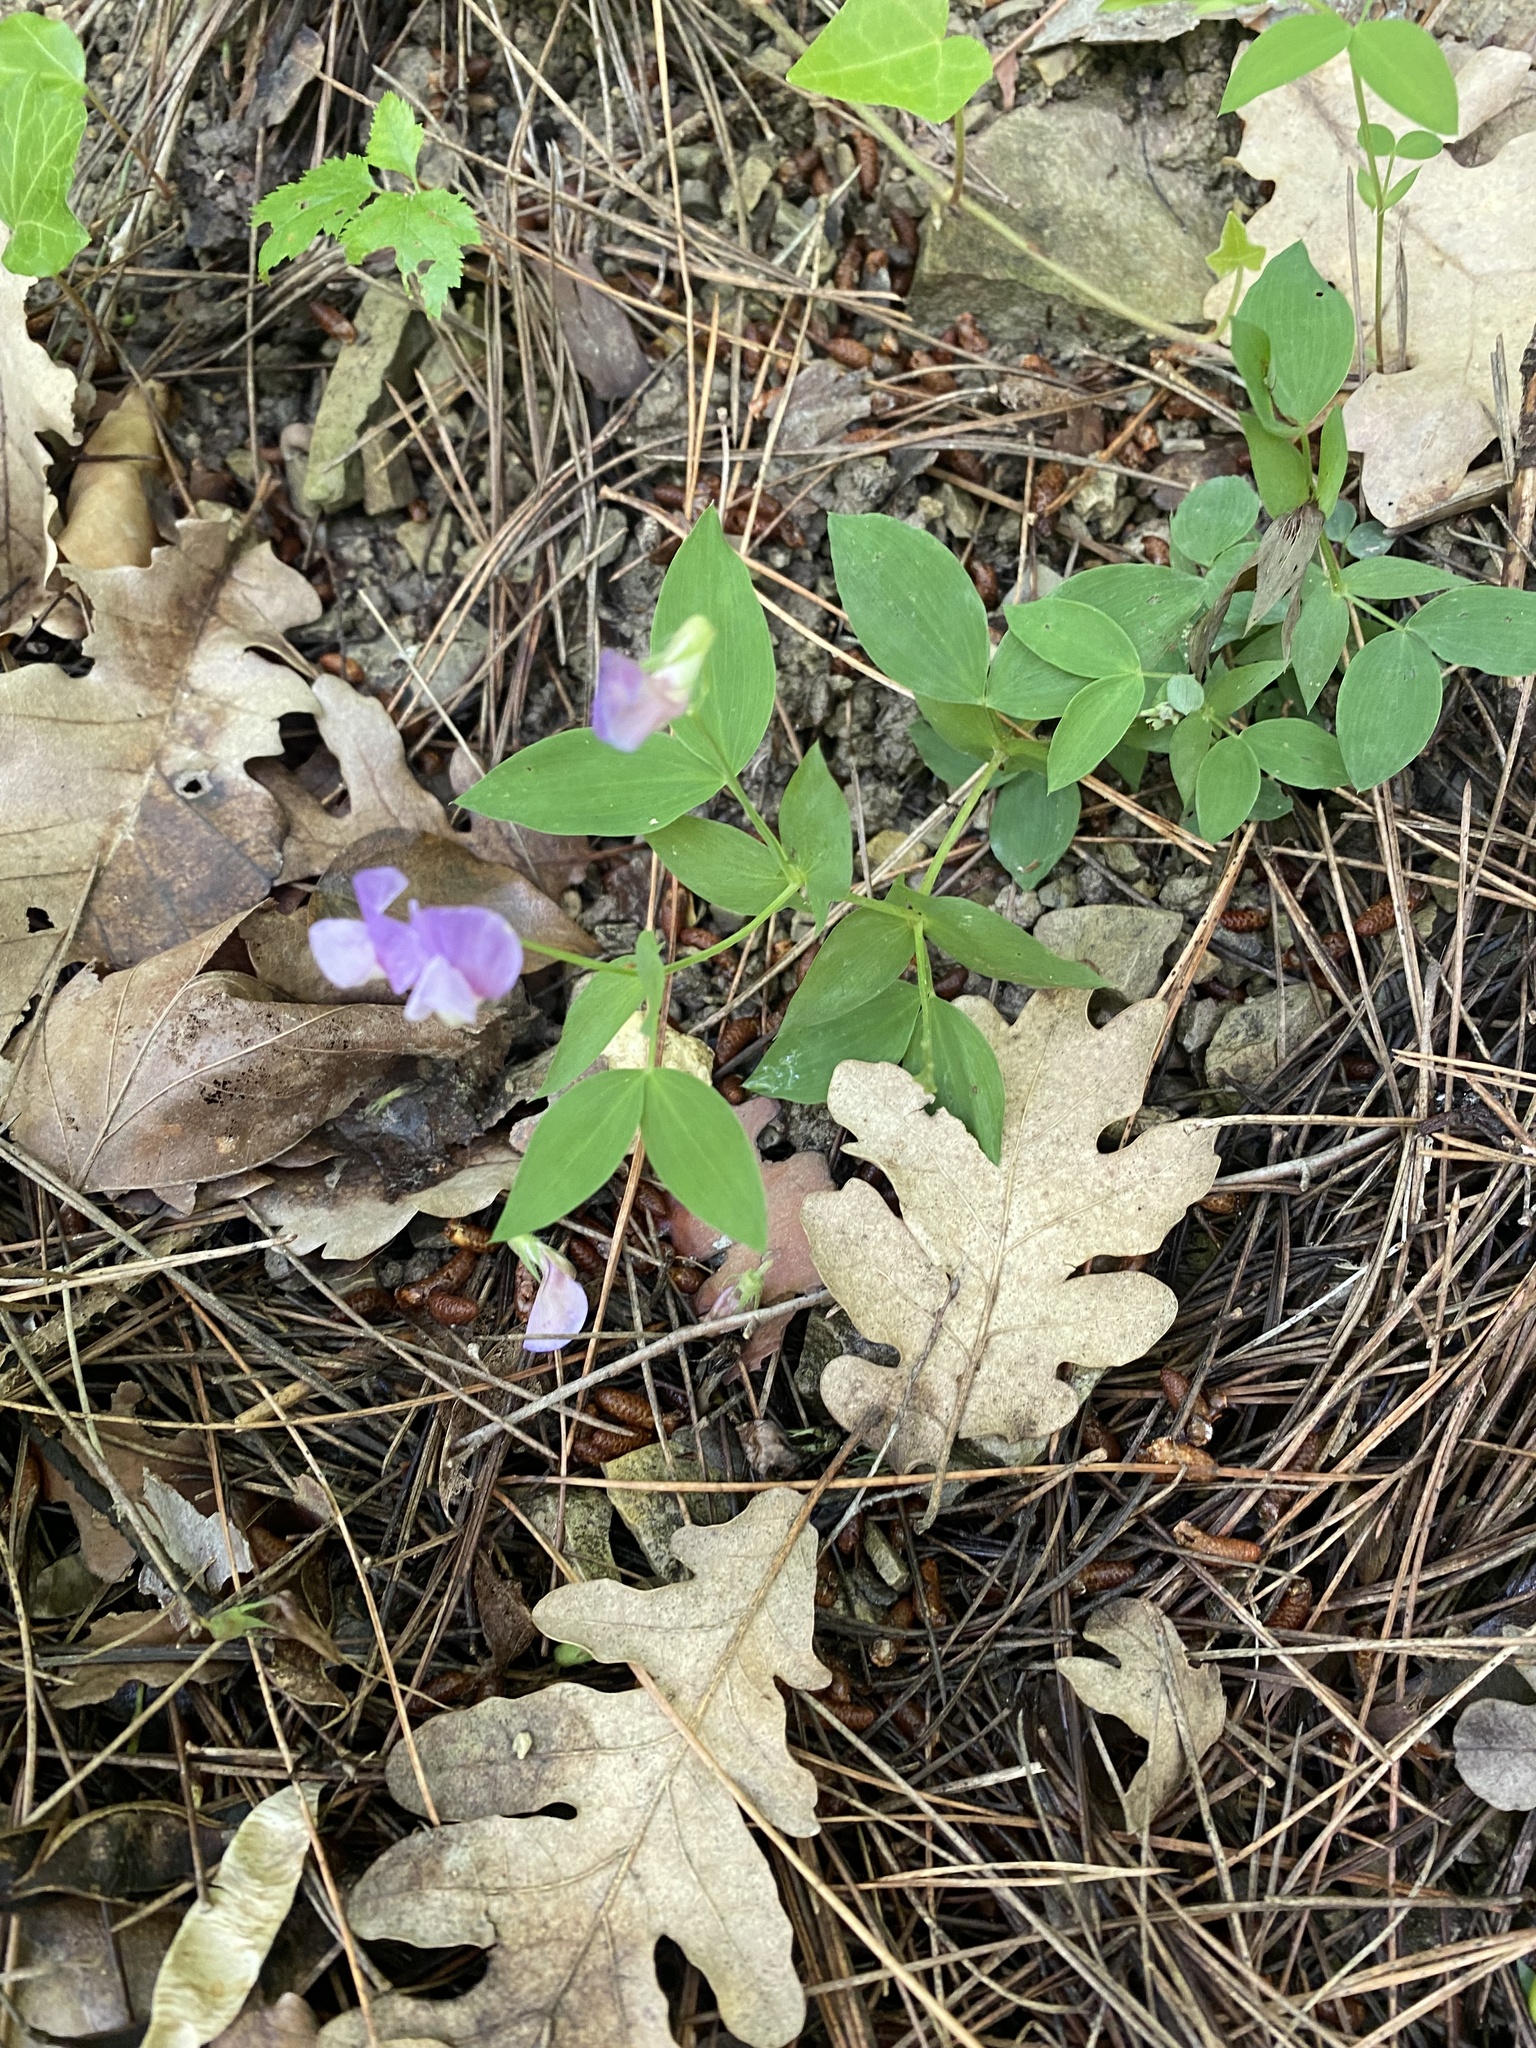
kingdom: Plantae
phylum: Tracheophyta
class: Magnoliopsida
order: Fabales
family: Fabaceae
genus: Lathyrus
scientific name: Lathyrus laxiflorus
